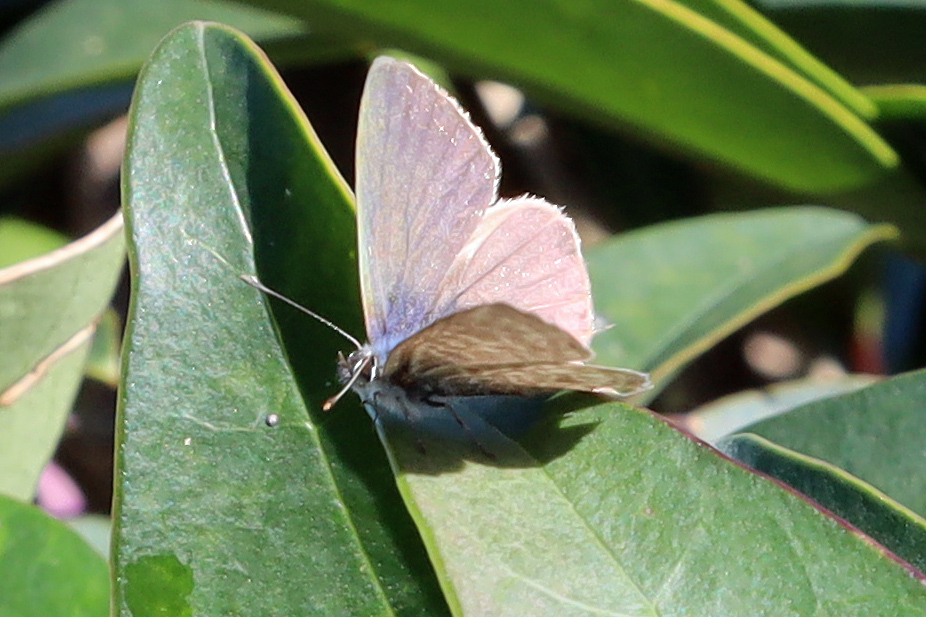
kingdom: Animalia
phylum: Arthropoda
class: Insecta
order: Lepidoptera
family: Lycaenidae
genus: Leptotes
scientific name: Leptotes pirithous
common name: Lang's short-tailed blue
